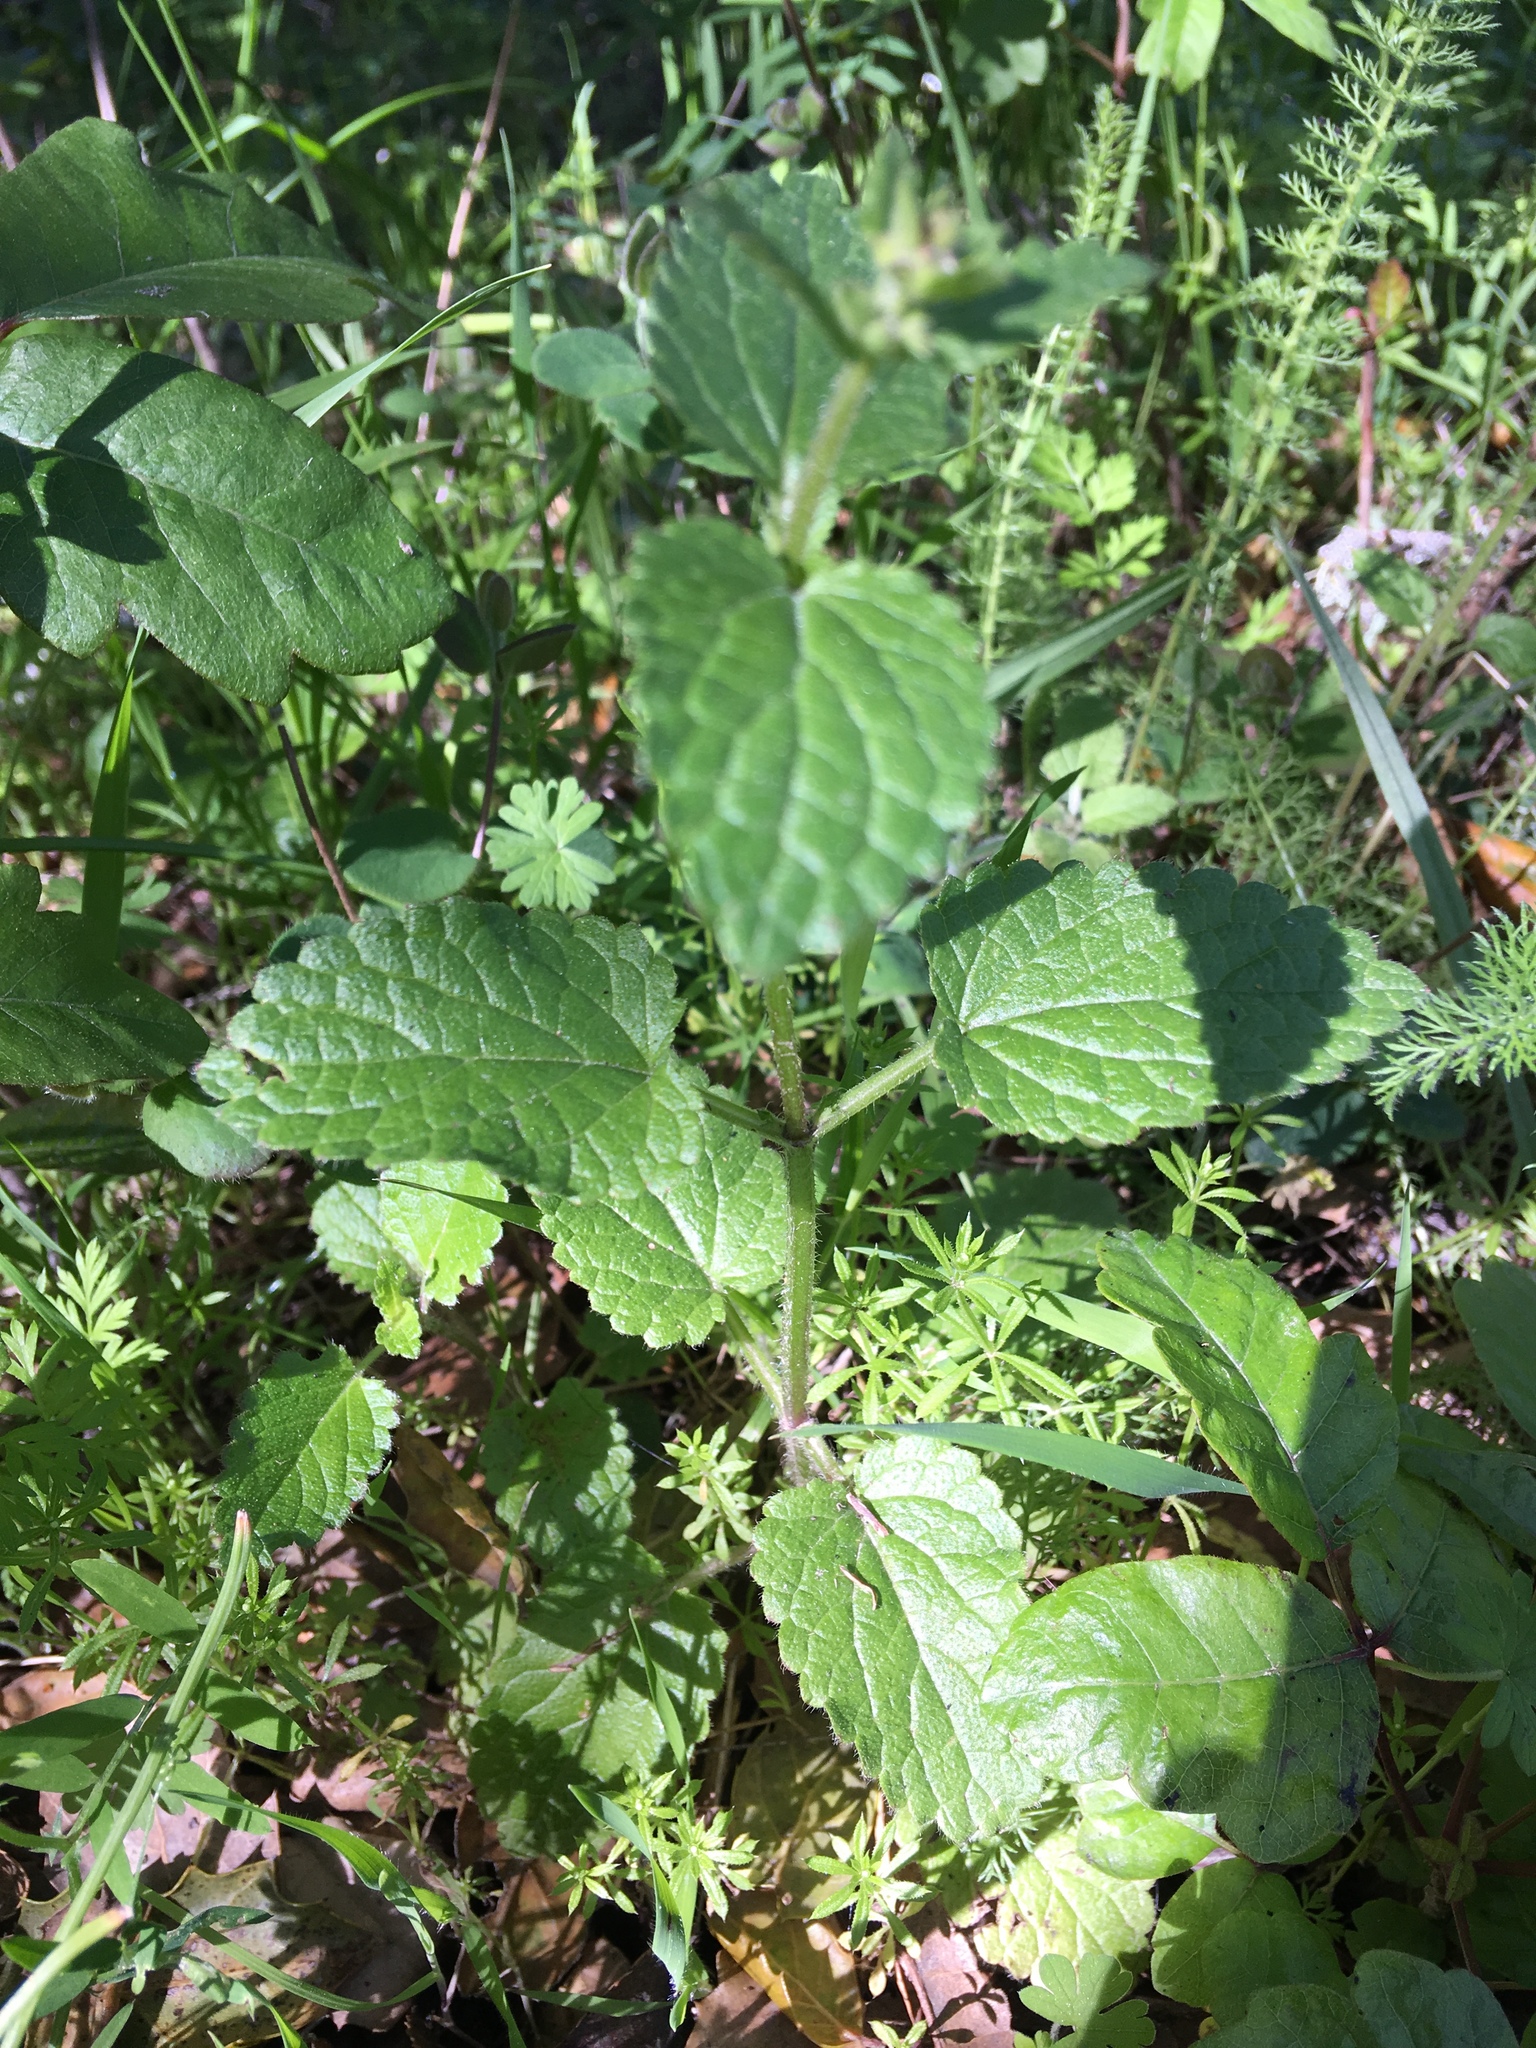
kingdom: Plantae
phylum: Tracheophyta
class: Magnoliopsida
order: Lamiales
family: Lamiaceae
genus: Stachys
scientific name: Stachys rigida
